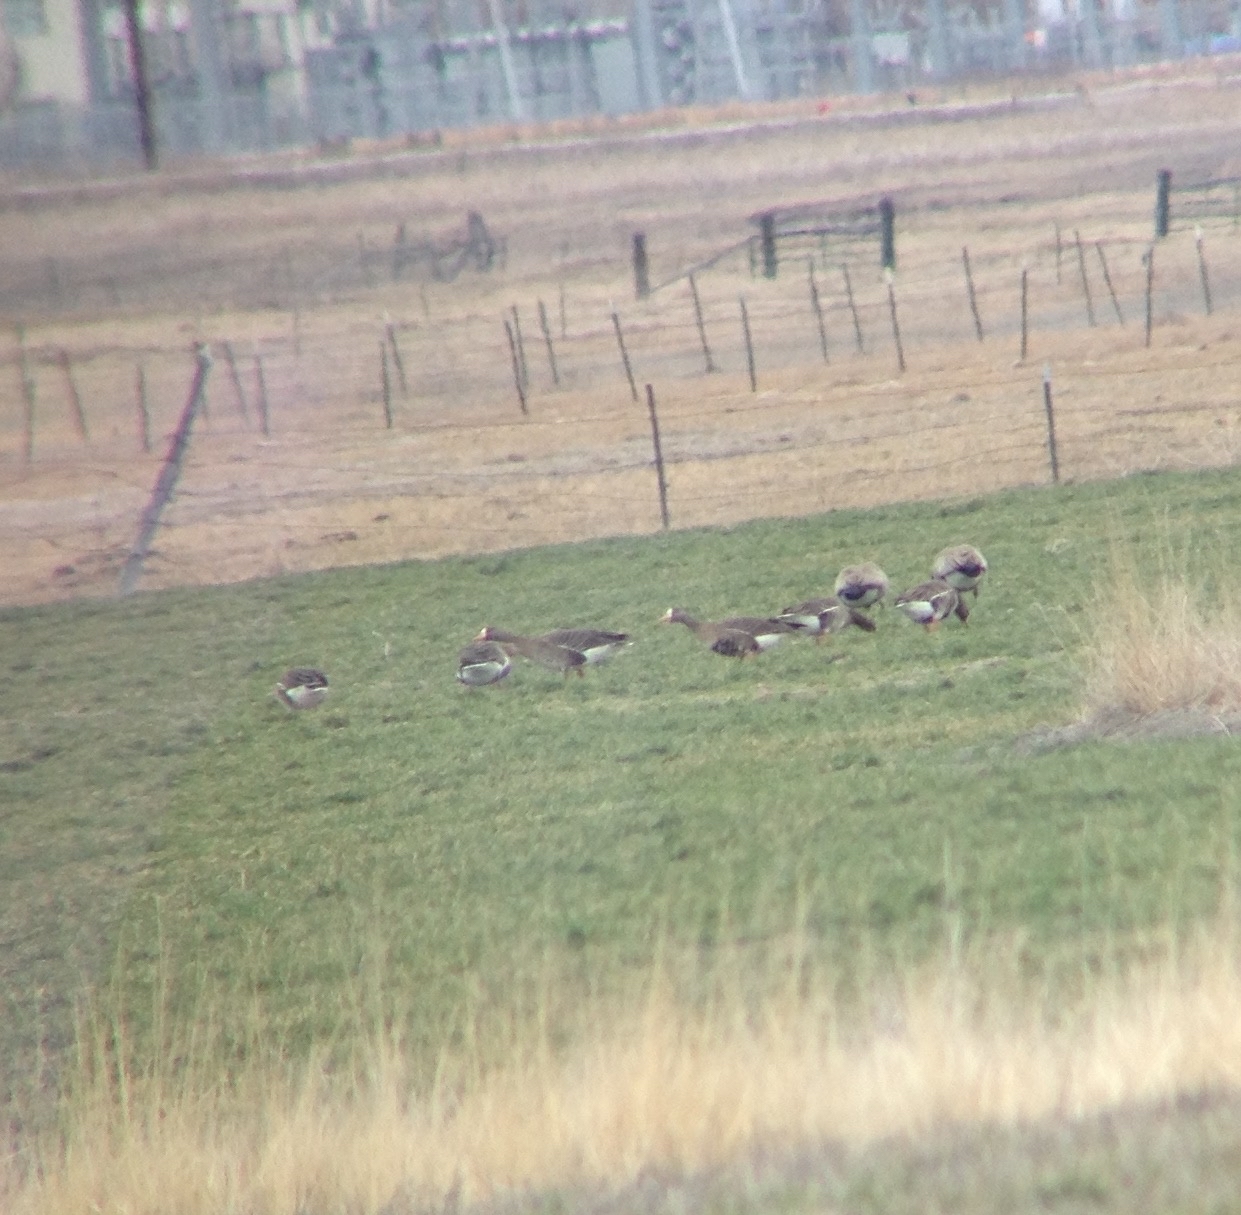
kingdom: Animalia
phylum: Chordata
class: Aves
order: Anseriformes
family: Anatidae
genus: Anser
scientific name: Anser albifrons
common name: Greater white-fronted goose
